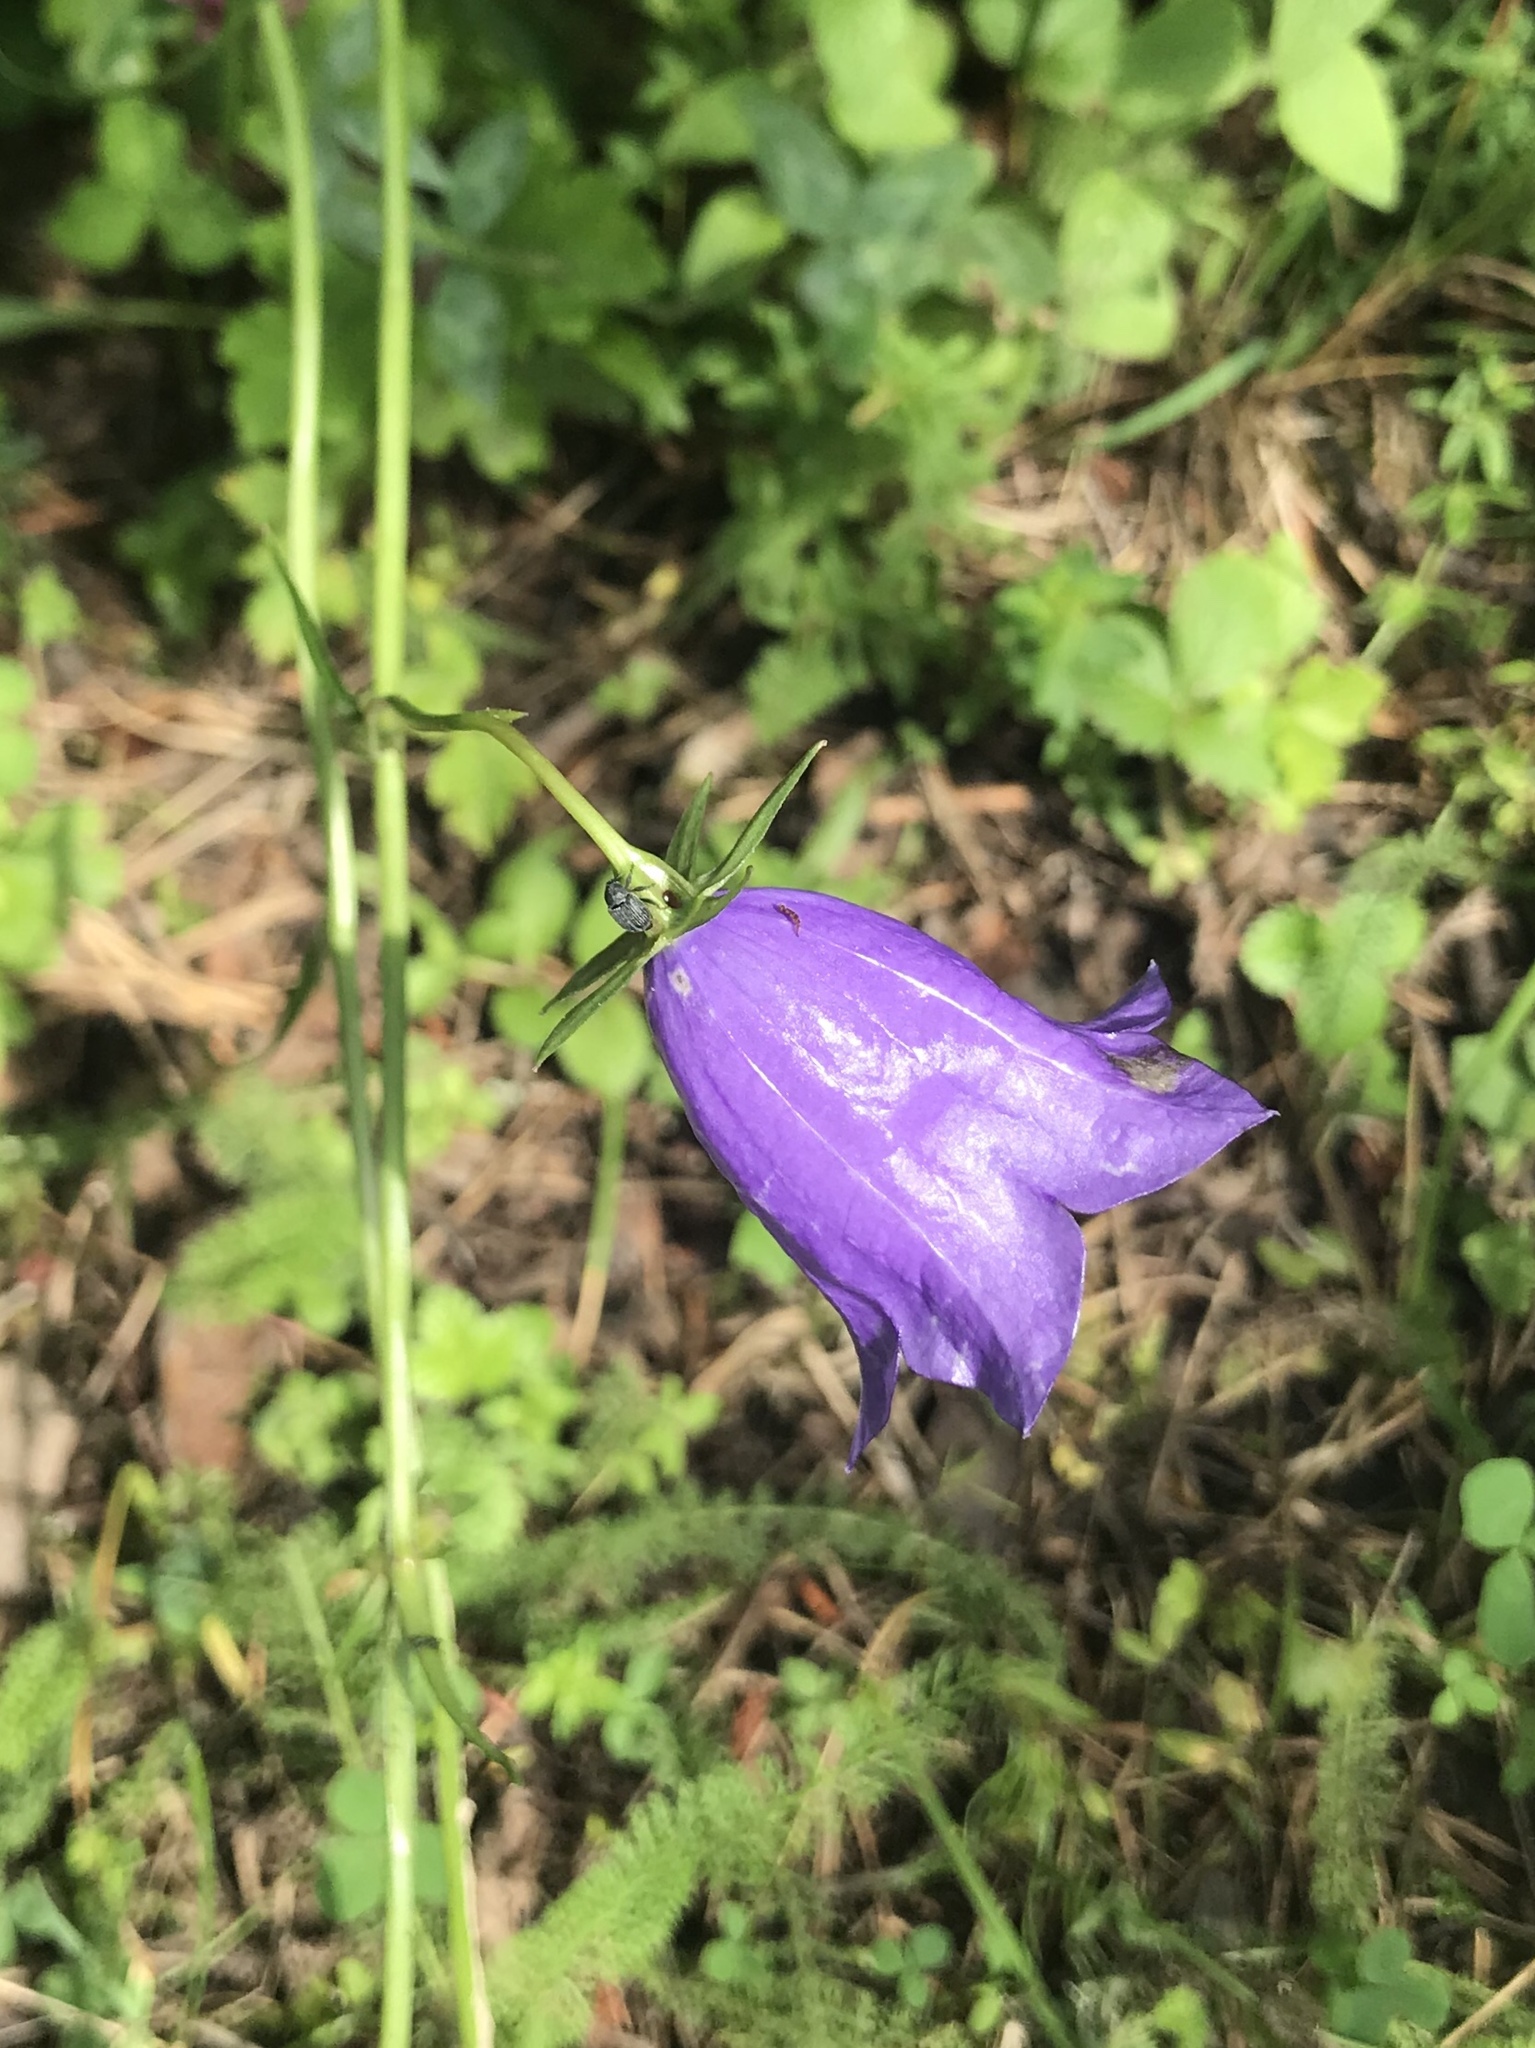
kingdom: Plantae
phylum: Tracheophyta
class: Magnoliopsida
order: Asterales
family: Campanulaceae
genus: Campanula
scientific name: Campanula trachelium
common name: Nettle-leaved bellflower
